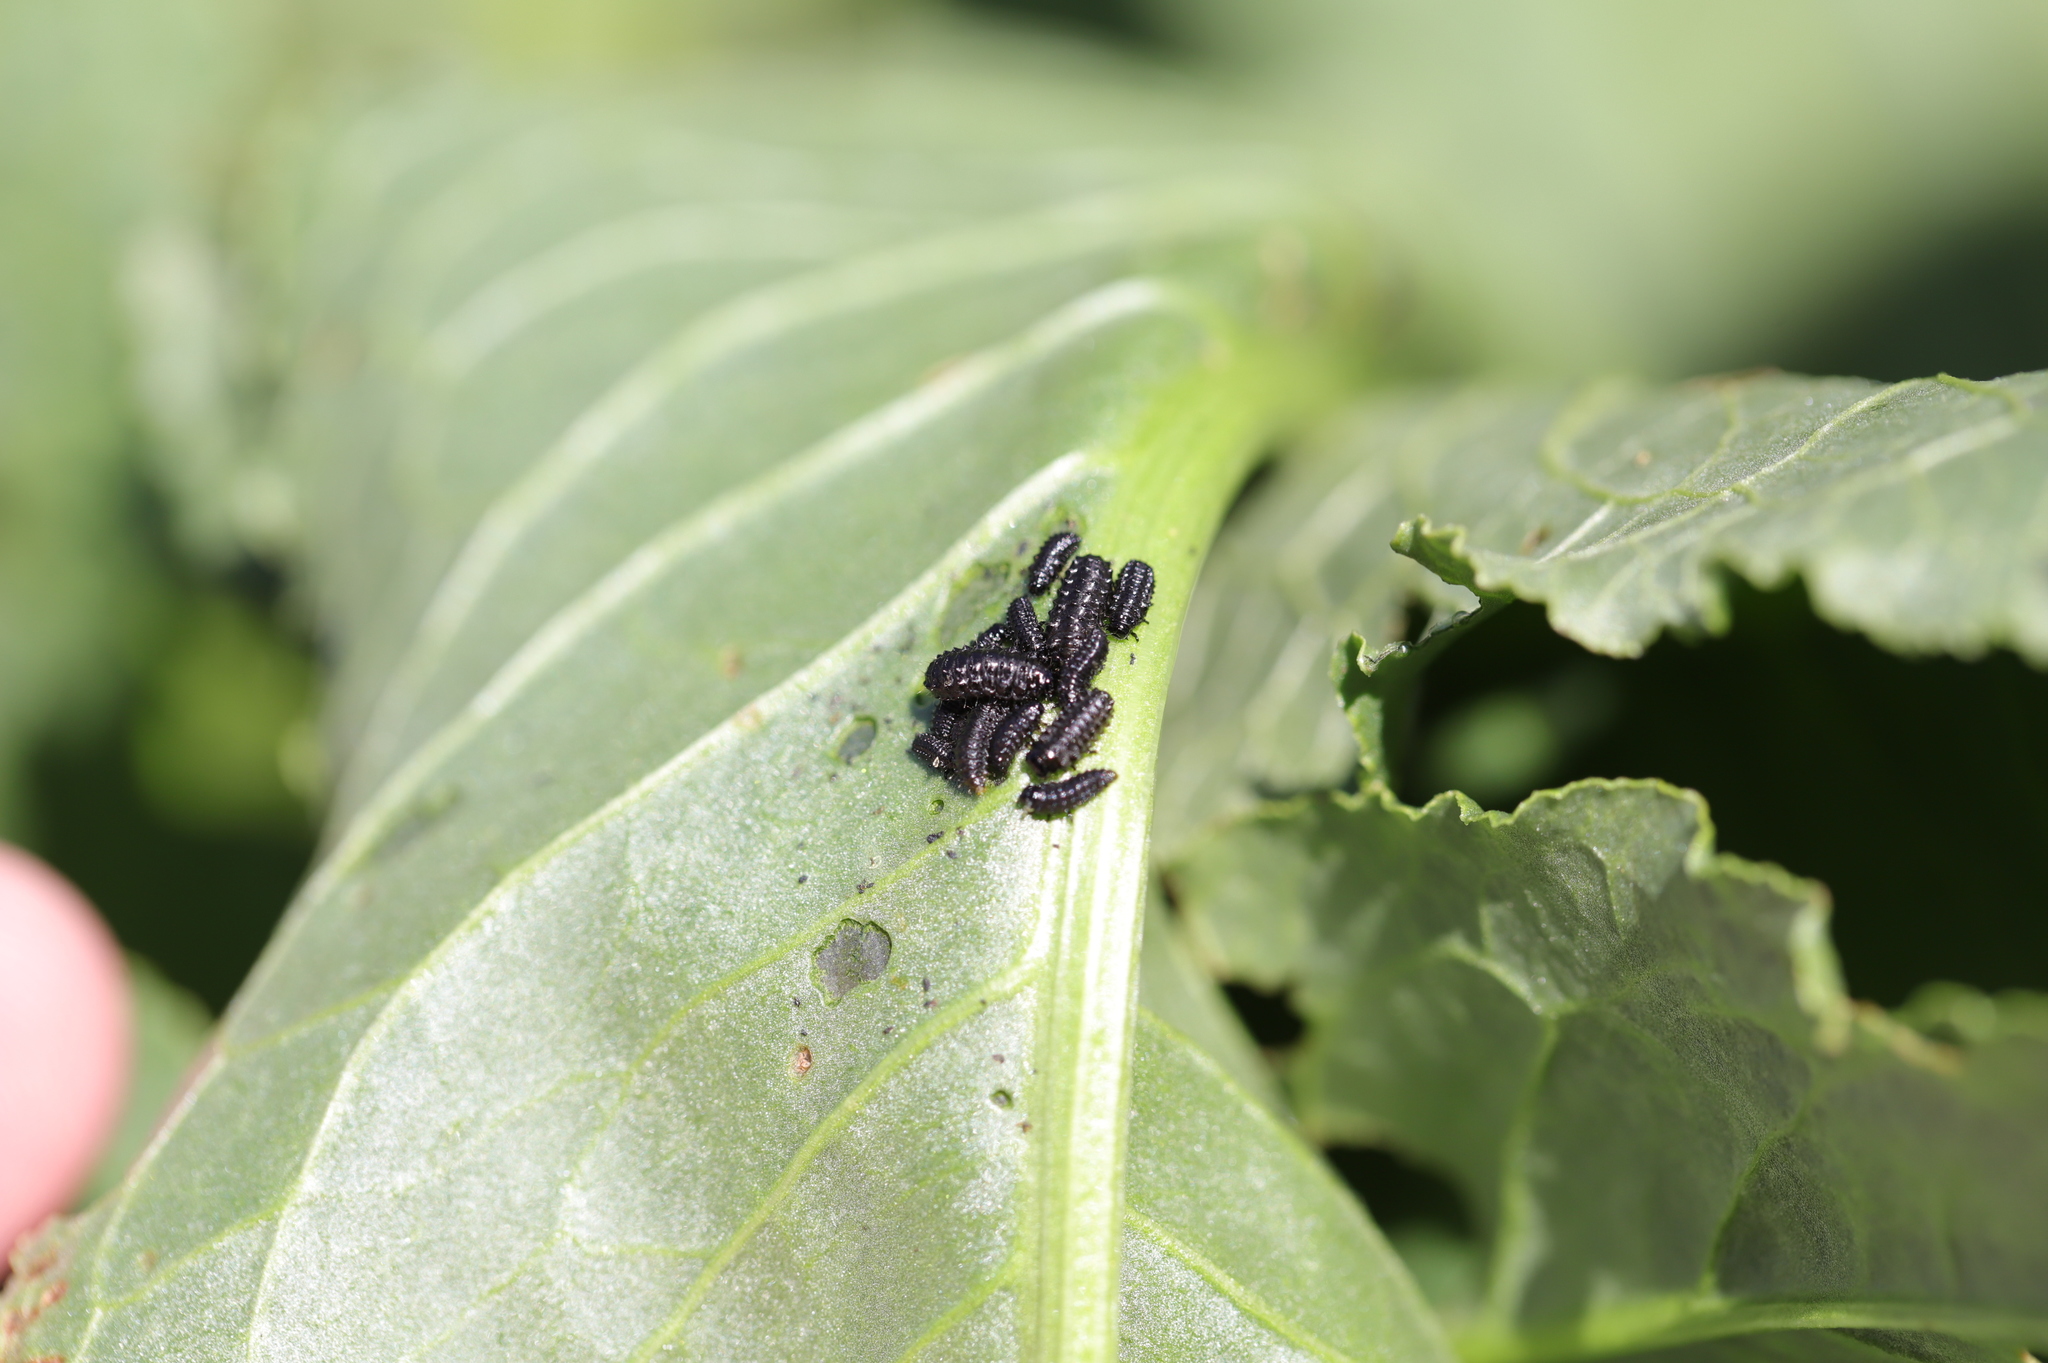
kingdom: Animalia
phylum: Arthropoda
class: Insecta
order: Coleoptera
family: Chrysomelidae
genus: Gastrophysa
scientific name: Gastrophysa cyanea
